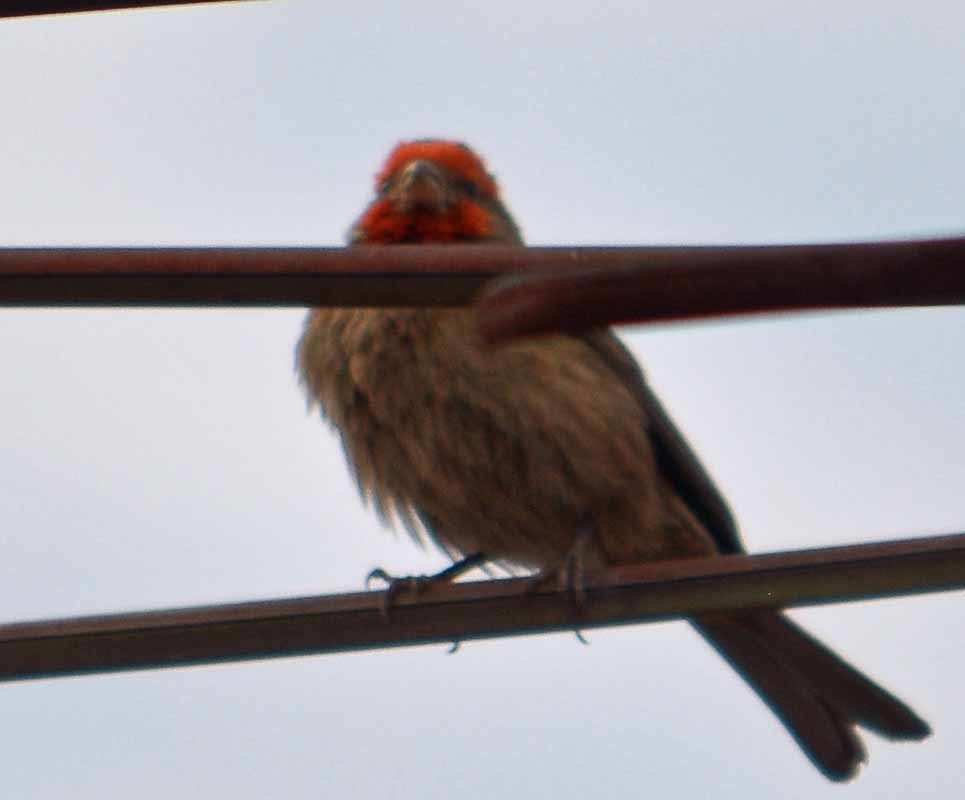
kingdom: Animalia
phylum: Chordata
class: Aves
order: Passeriformes
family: Fringillidae
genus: Haemorhous
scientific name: Haemorhous mexicanus
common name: House finch
